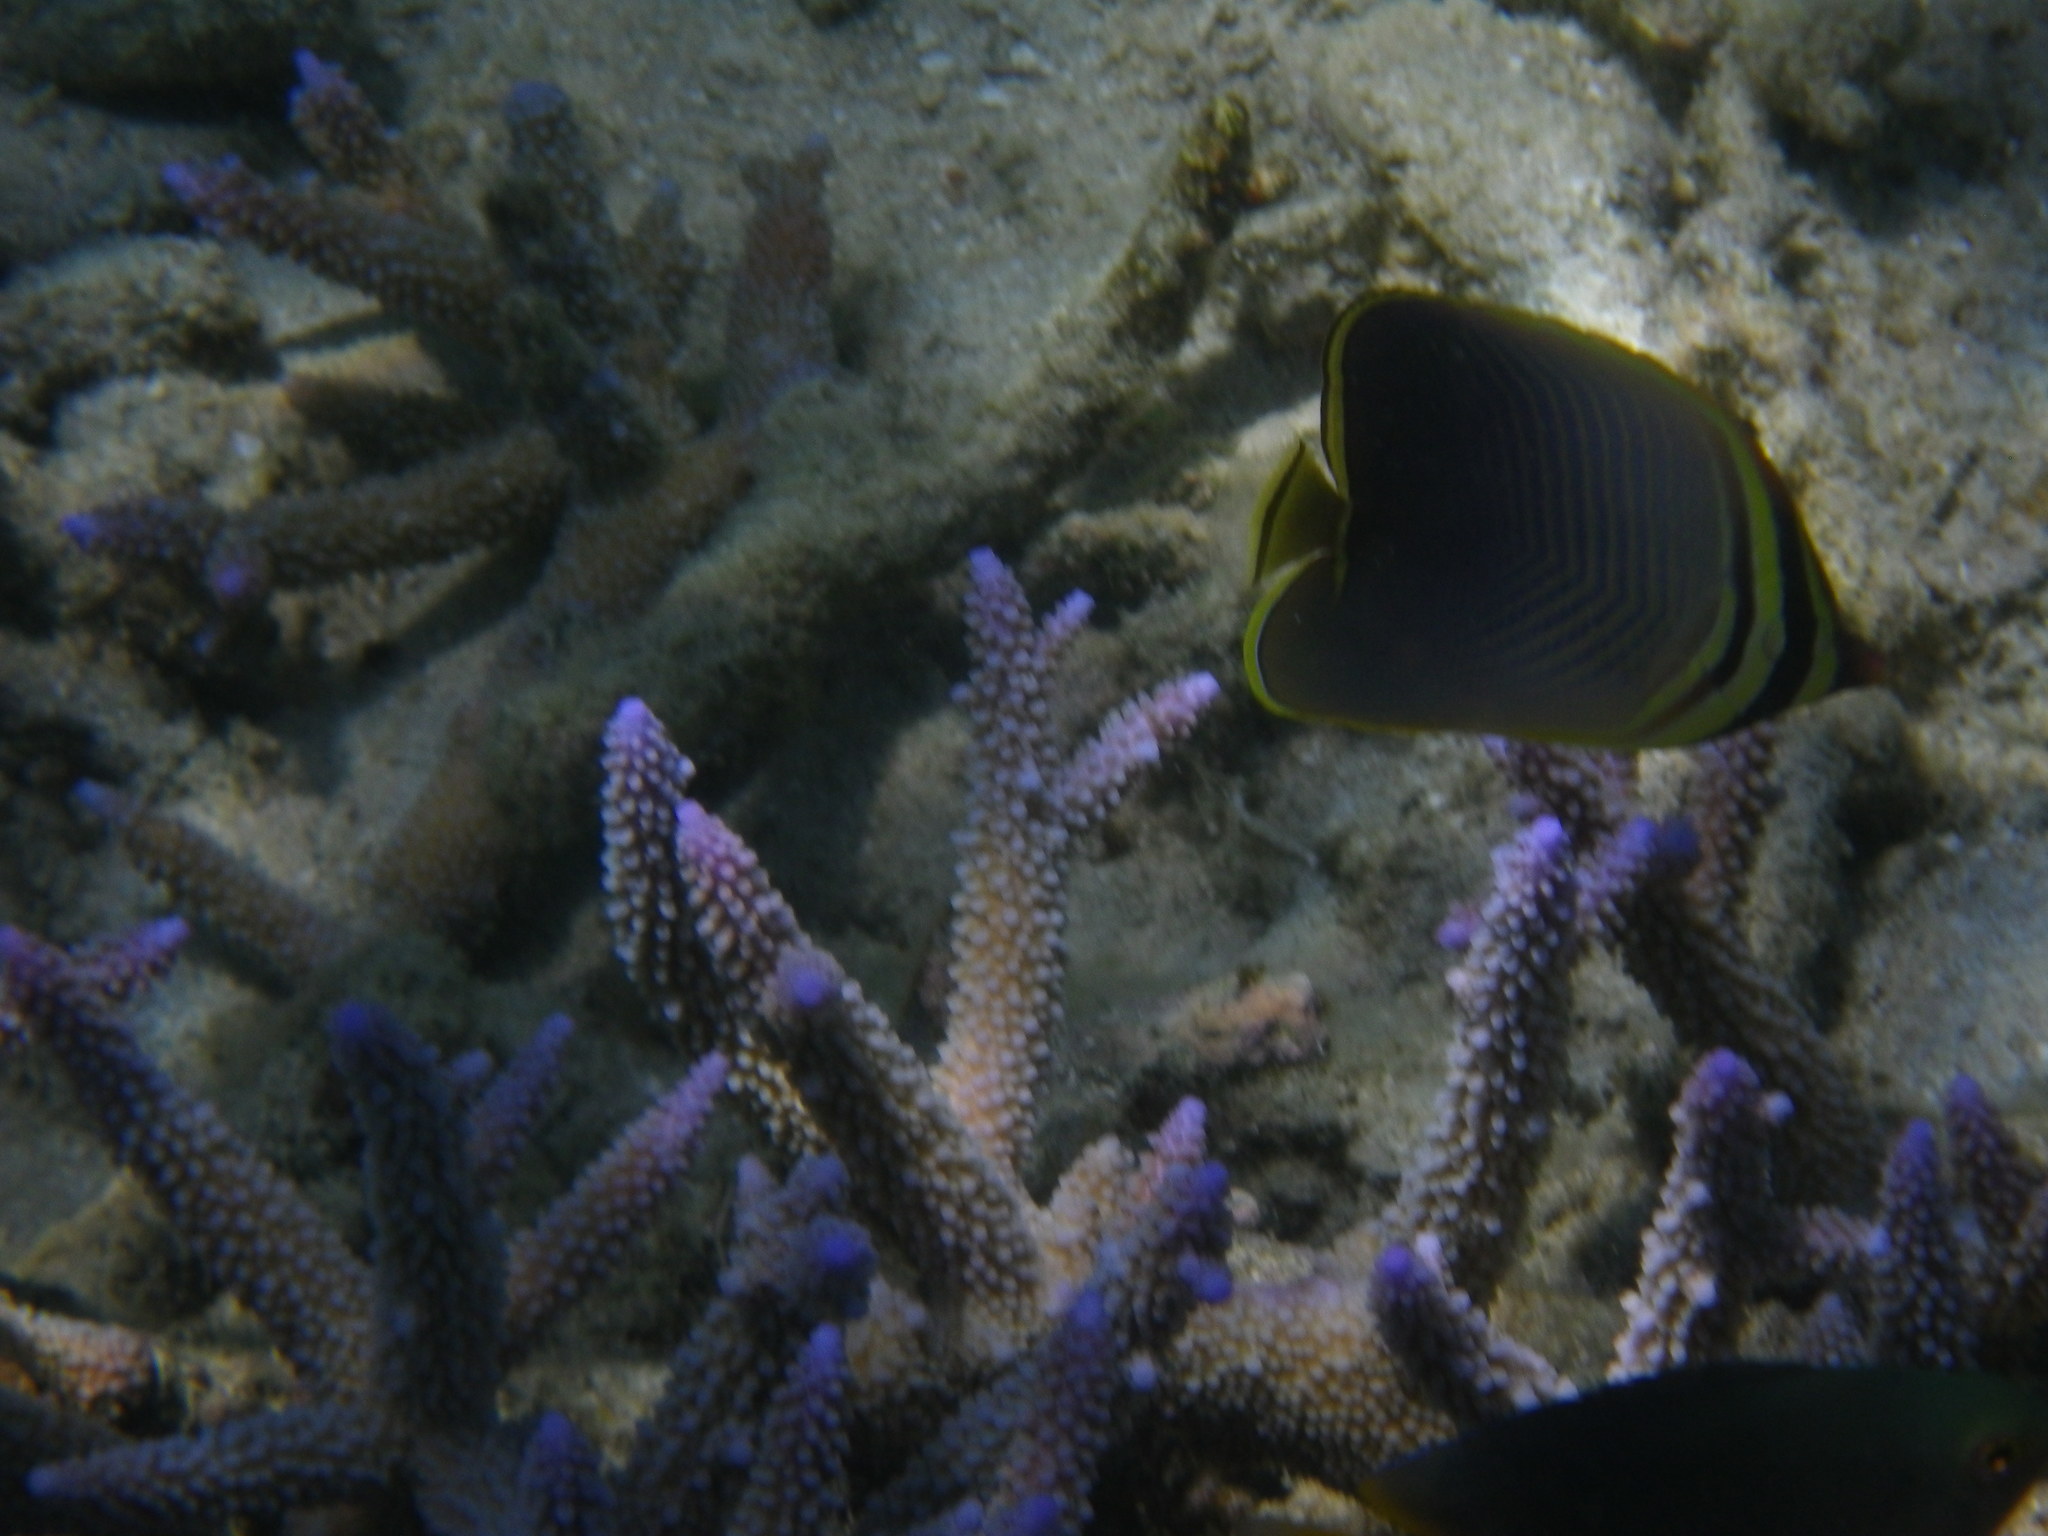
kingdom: Animalia
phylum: Chordata
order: Perciformes
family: Chaetodontidae
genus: Chaetodon
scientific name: Chaetodon baronessa
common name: Triangular butterflyfish
